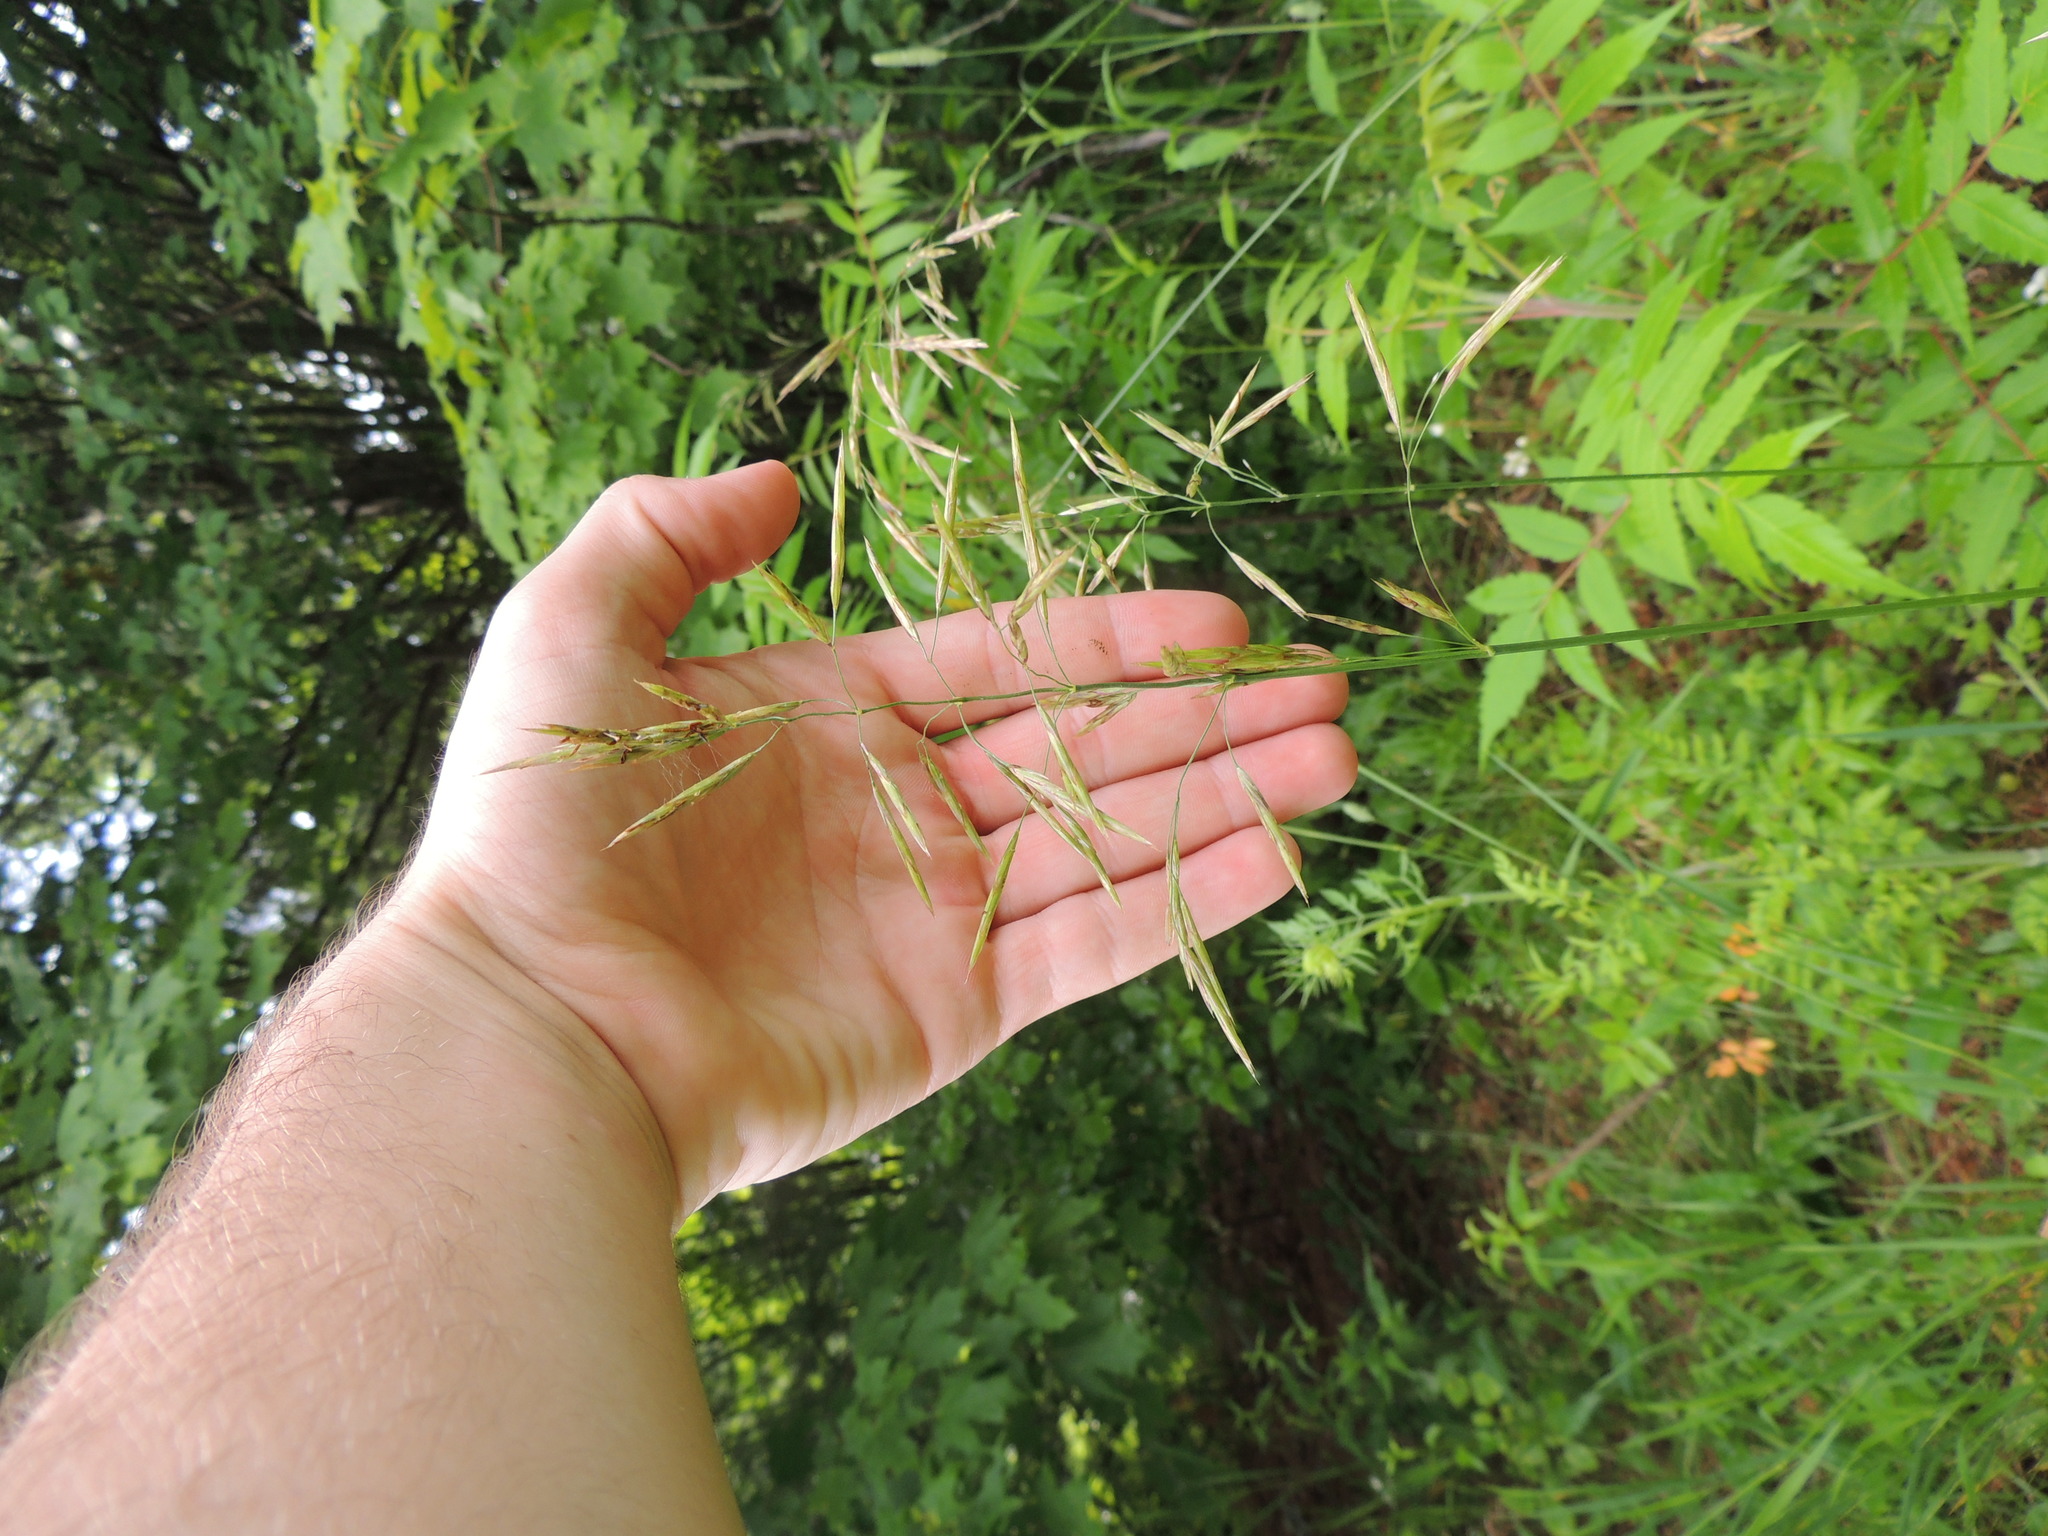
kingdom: Plantae
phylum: Tracheophyta
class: Liliopsida
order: Poales
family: Poaceae
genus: Bromus
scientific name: Bromus inermis
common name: Smooth brome
